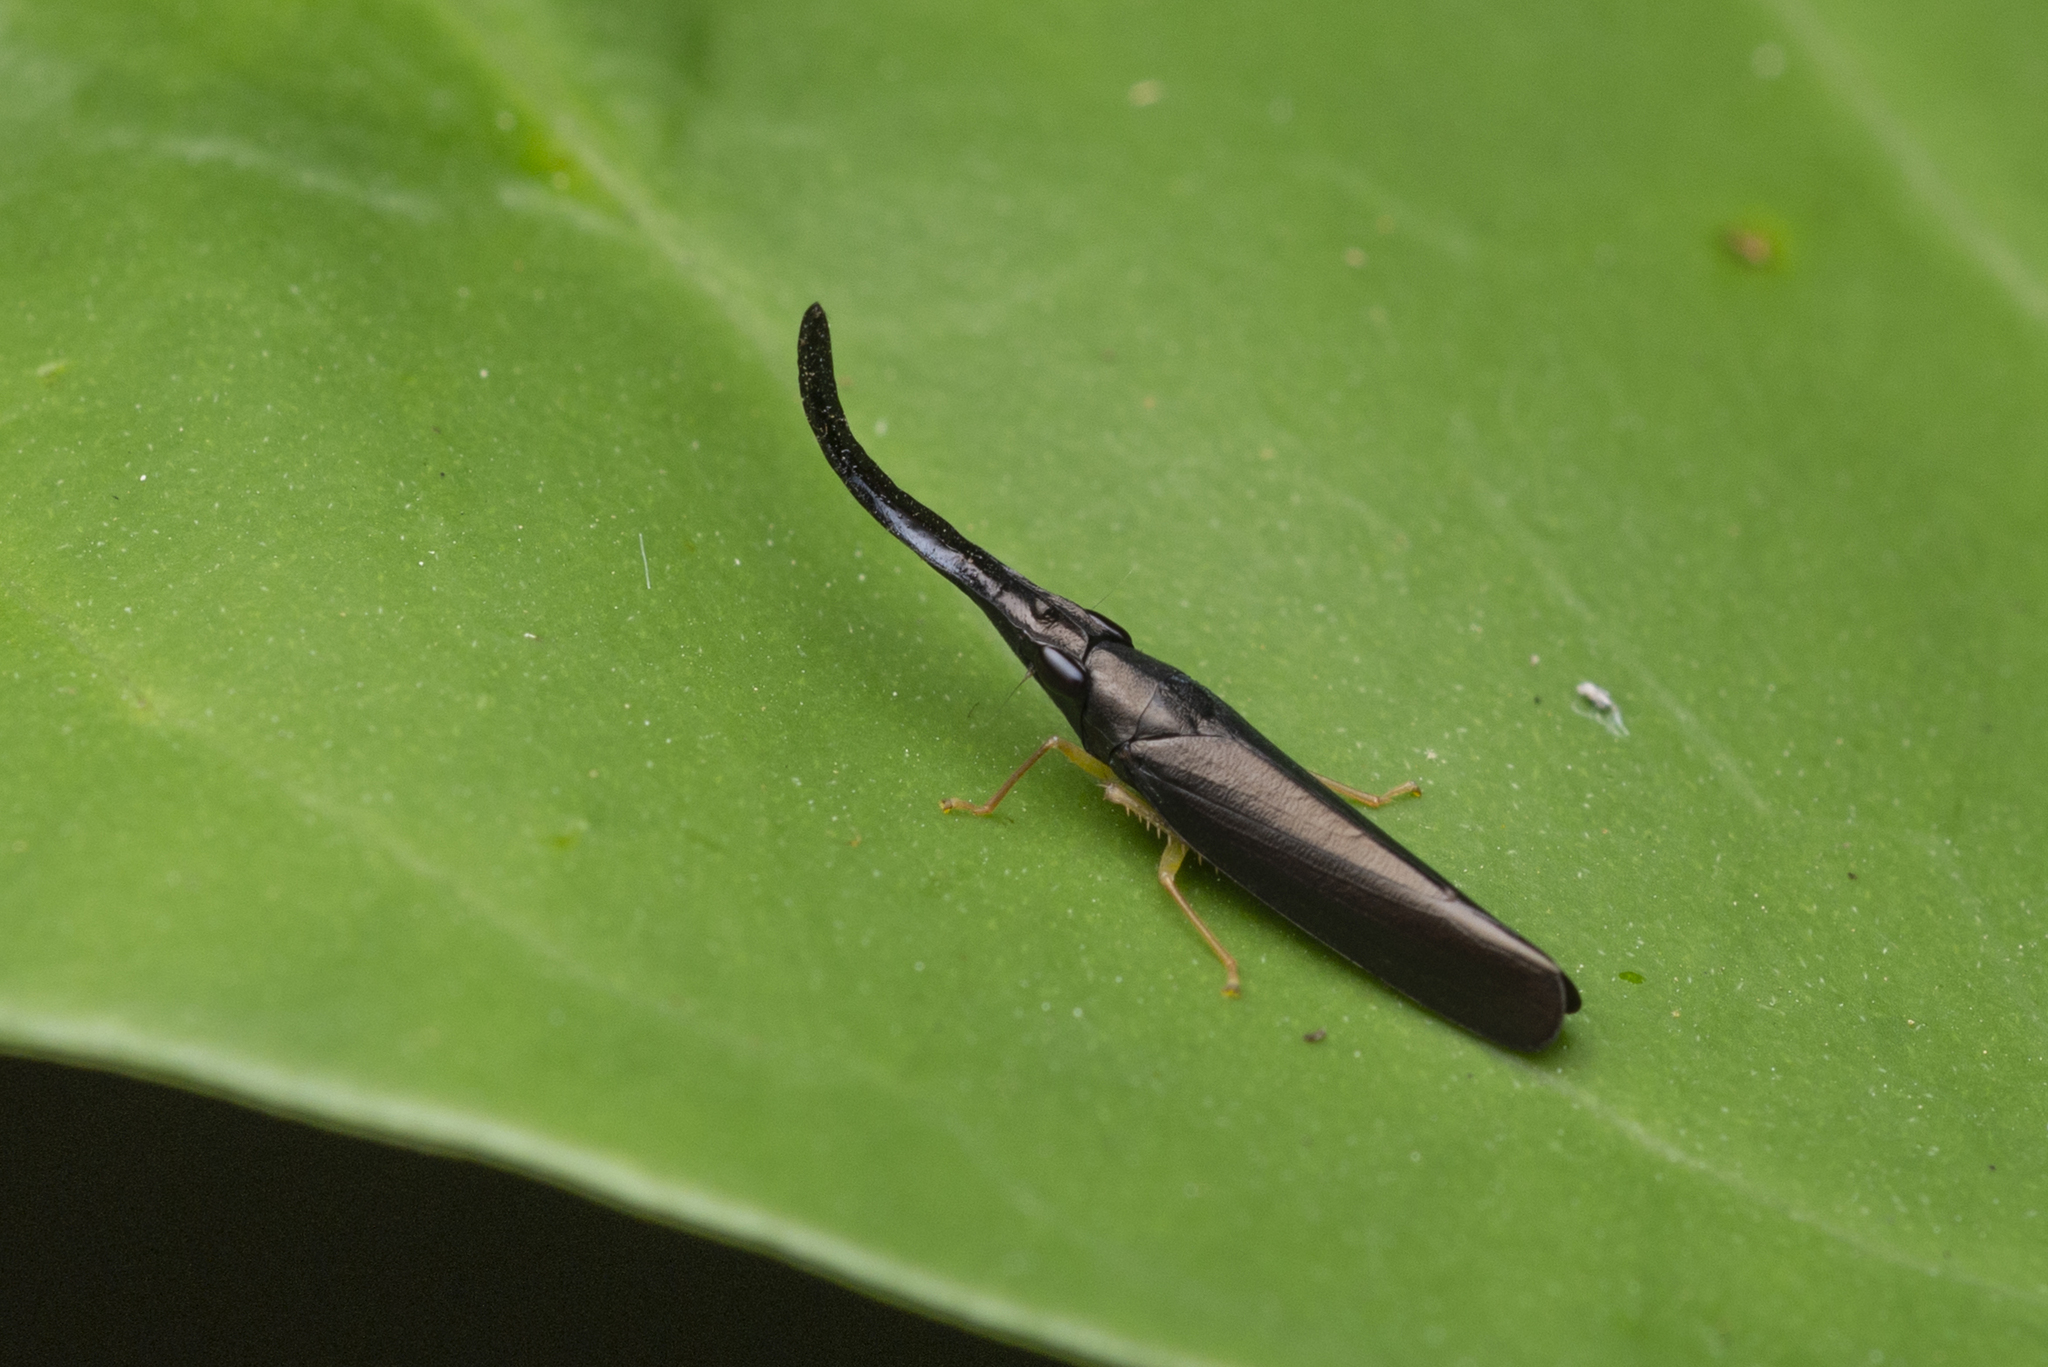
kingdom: Animalia
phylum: Arthropoda
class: Insecta
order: Hemiptera
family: Cicadellidae
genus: Vangama
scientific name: Vangama picea
